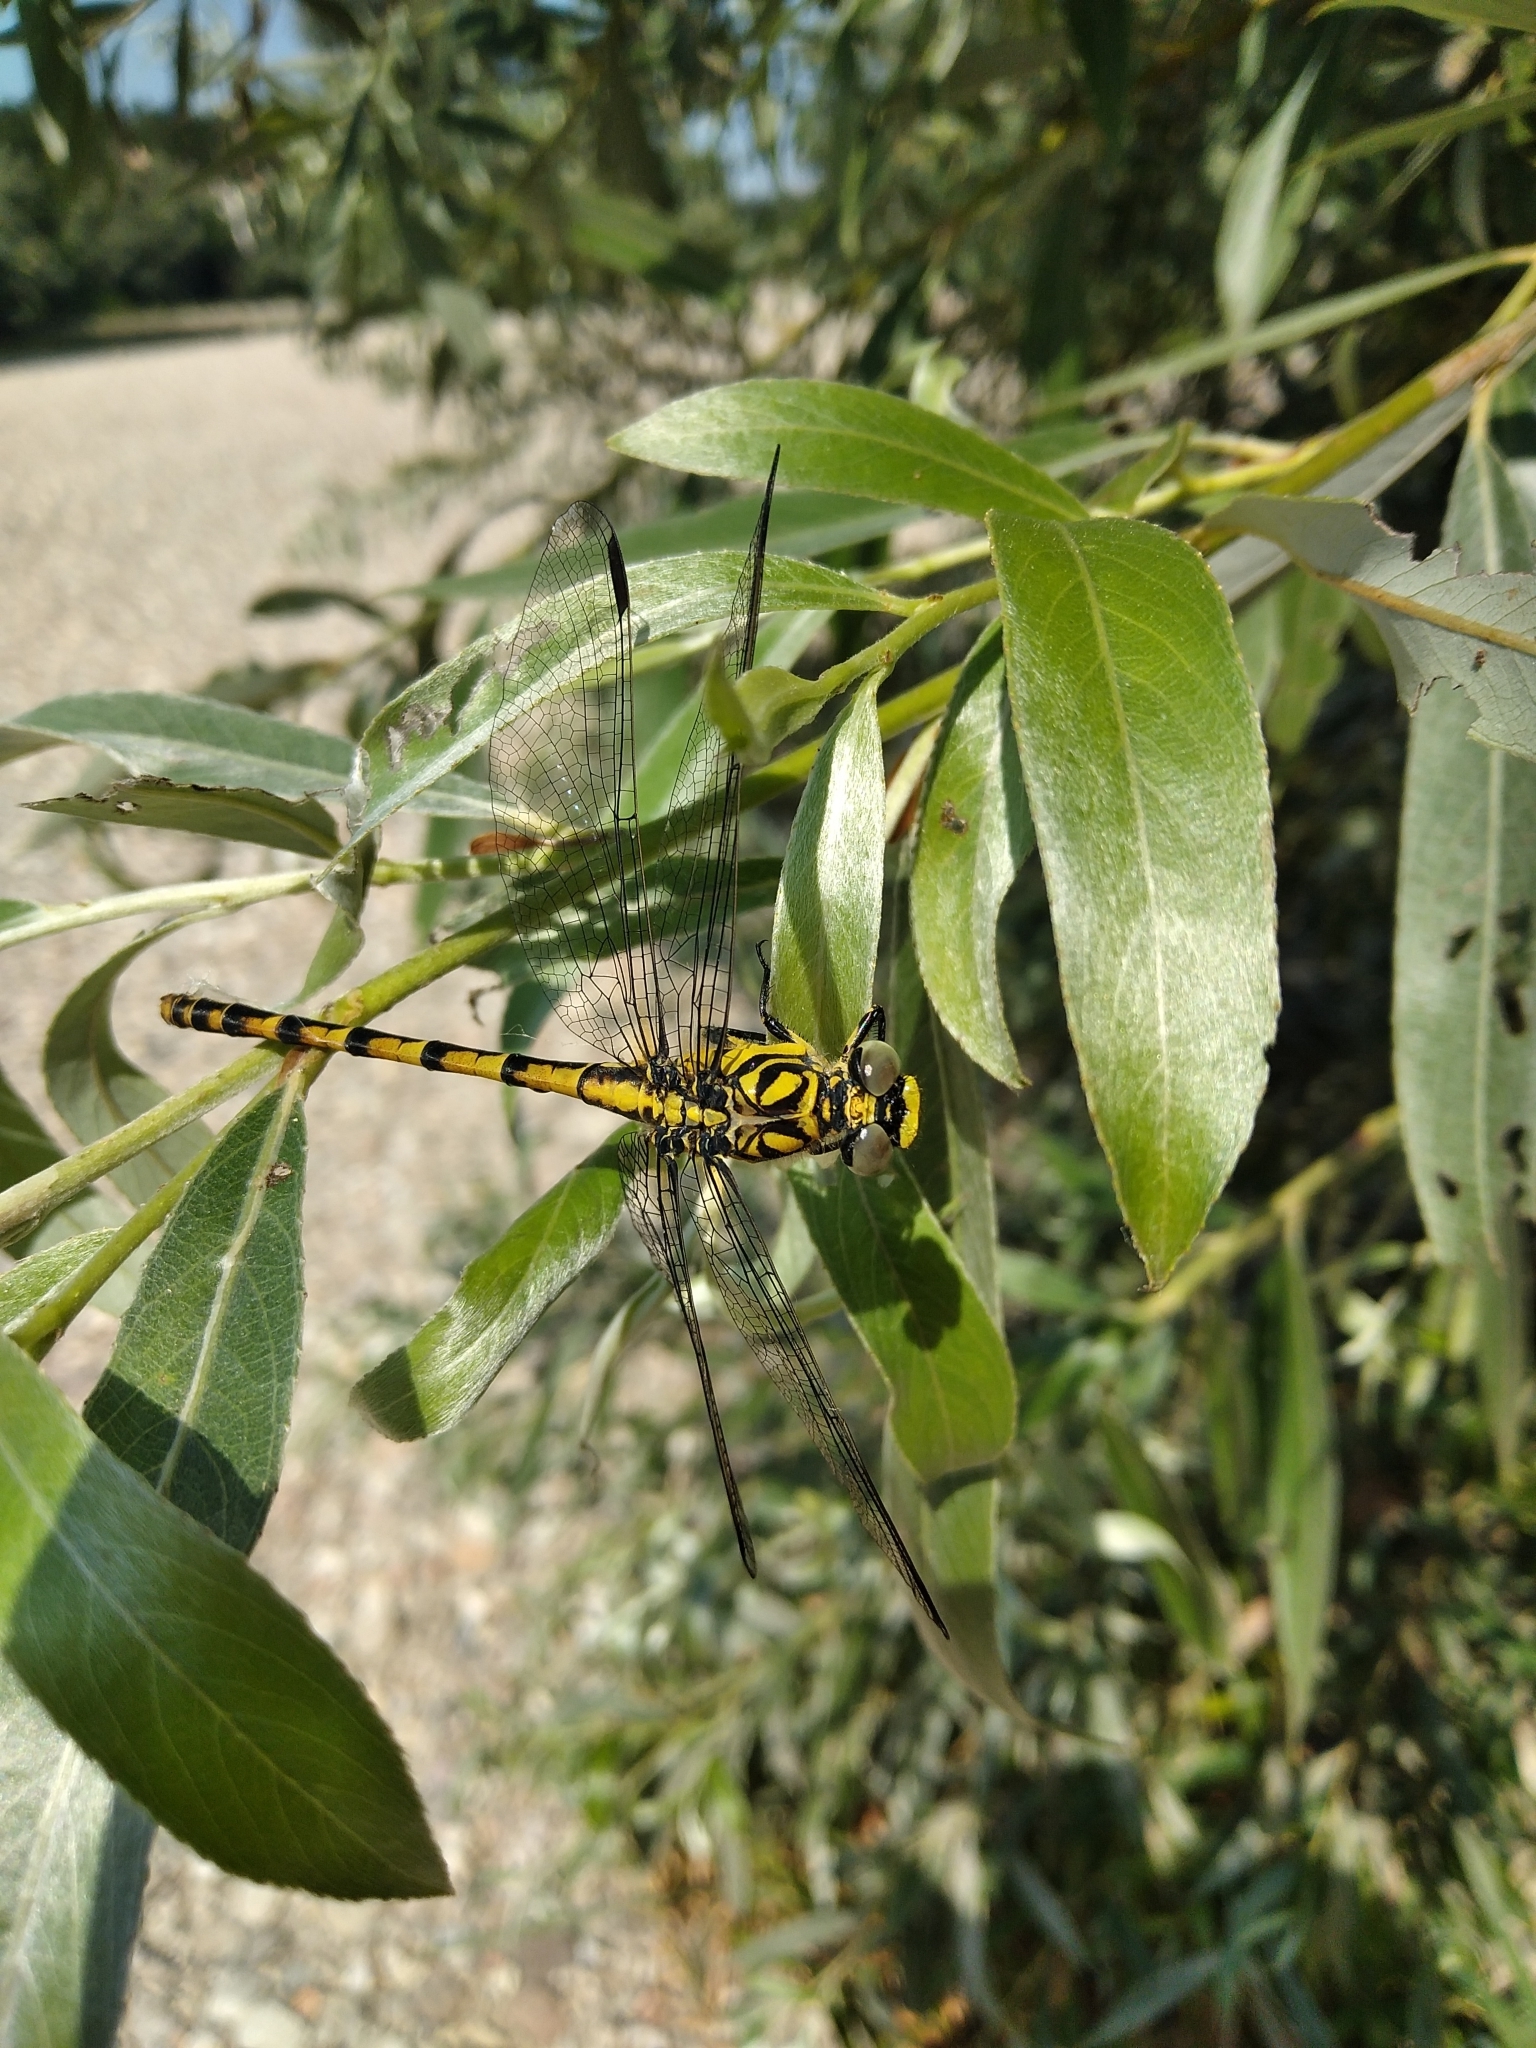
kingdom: Animalia
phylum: Arthropoda
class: Insecta
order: Odonata
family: Gomphidae
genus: Onychogomphus
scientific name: Onychogomphus forcipatus
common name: Small pincertail
